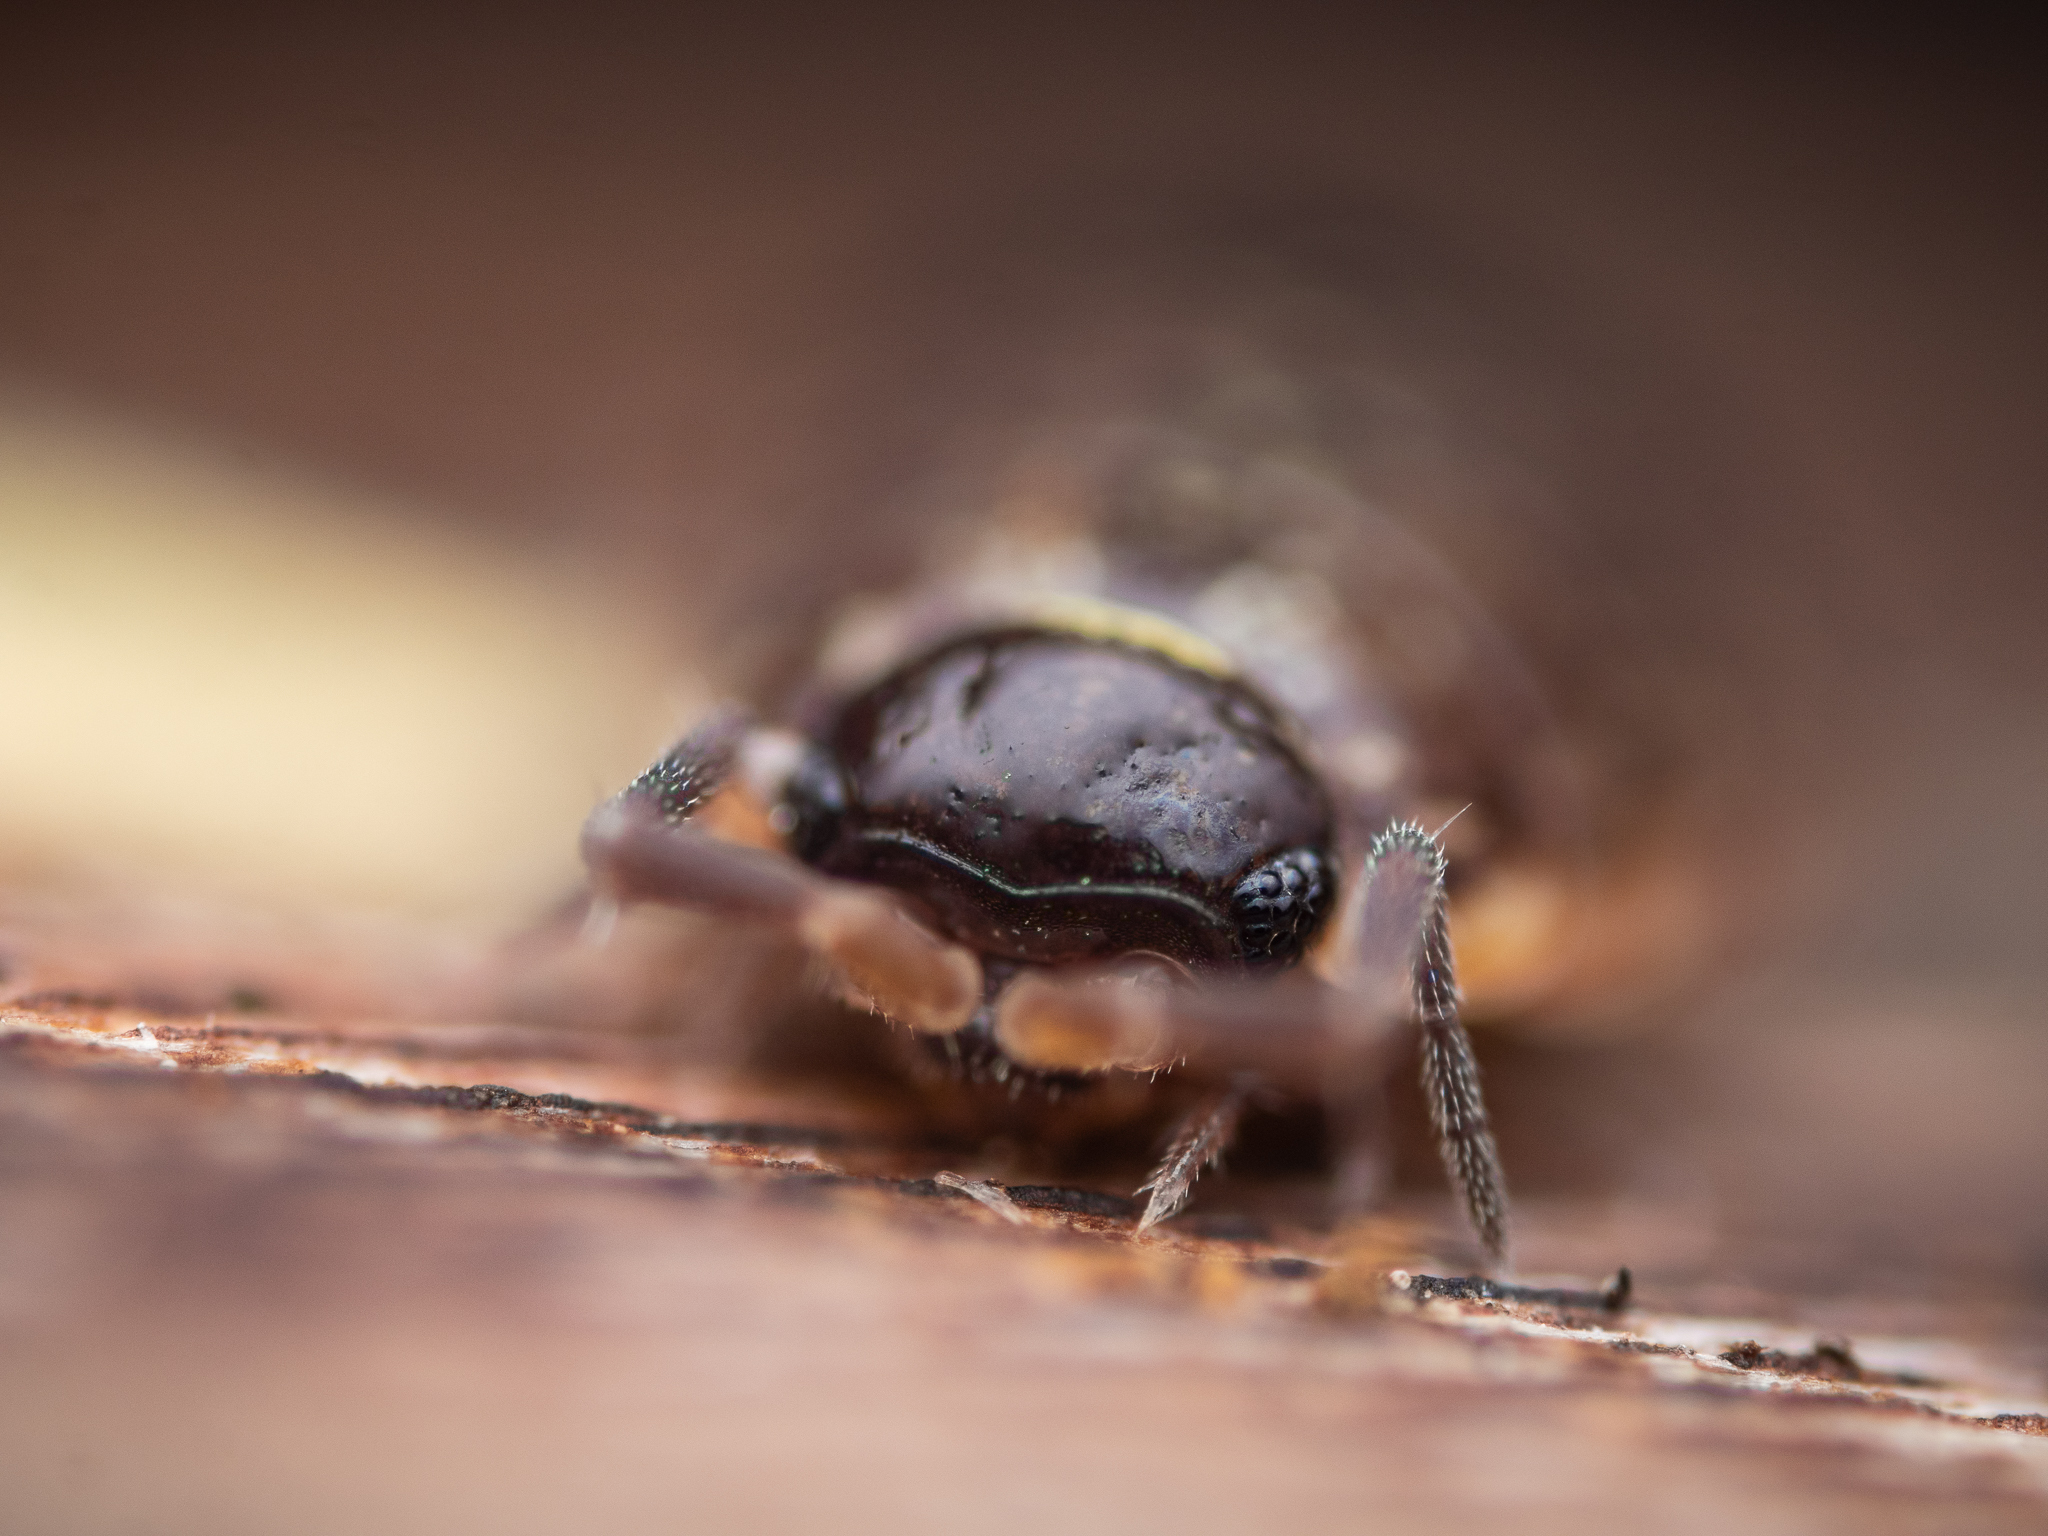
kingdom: Animalia
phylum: Arthropoda
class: Malacostraca
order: Isopoda
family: Philosciidae
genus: Philoscia
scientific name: Philoscia muscorum
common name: Common striped woodlouse
